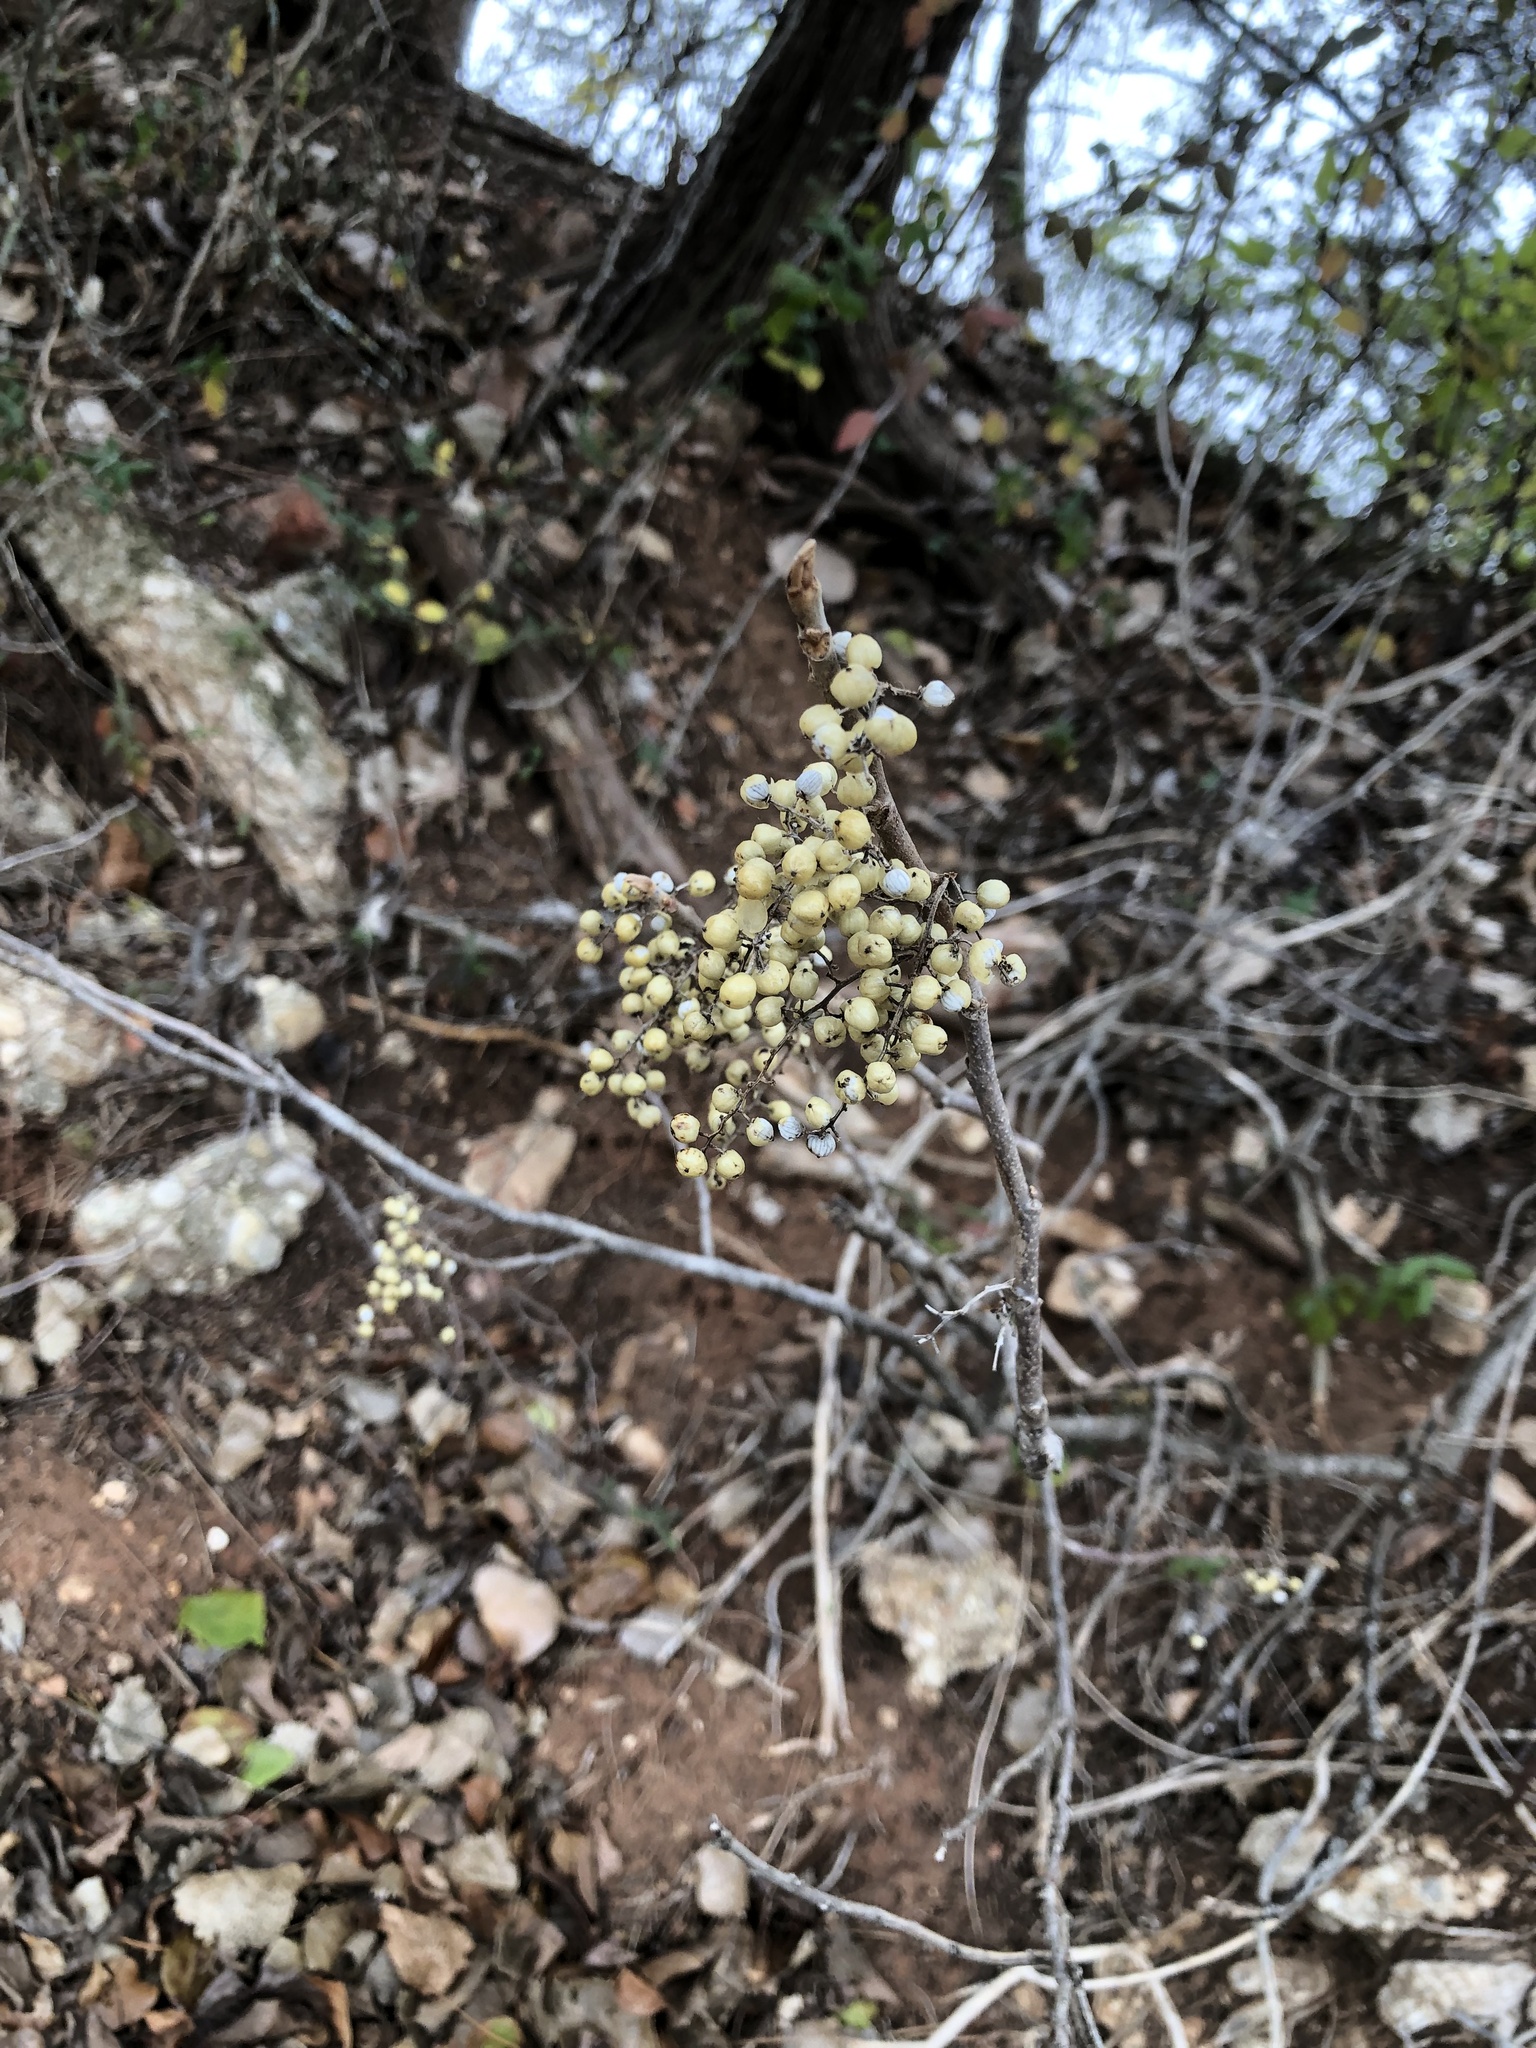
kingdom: Plantae
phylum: Tracheophyta
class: Magnoliopsida
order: Sapindales
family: Anacardiaceae
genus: Toxicodendron
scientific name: Toxicodendron radicans
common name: Poison ivy
